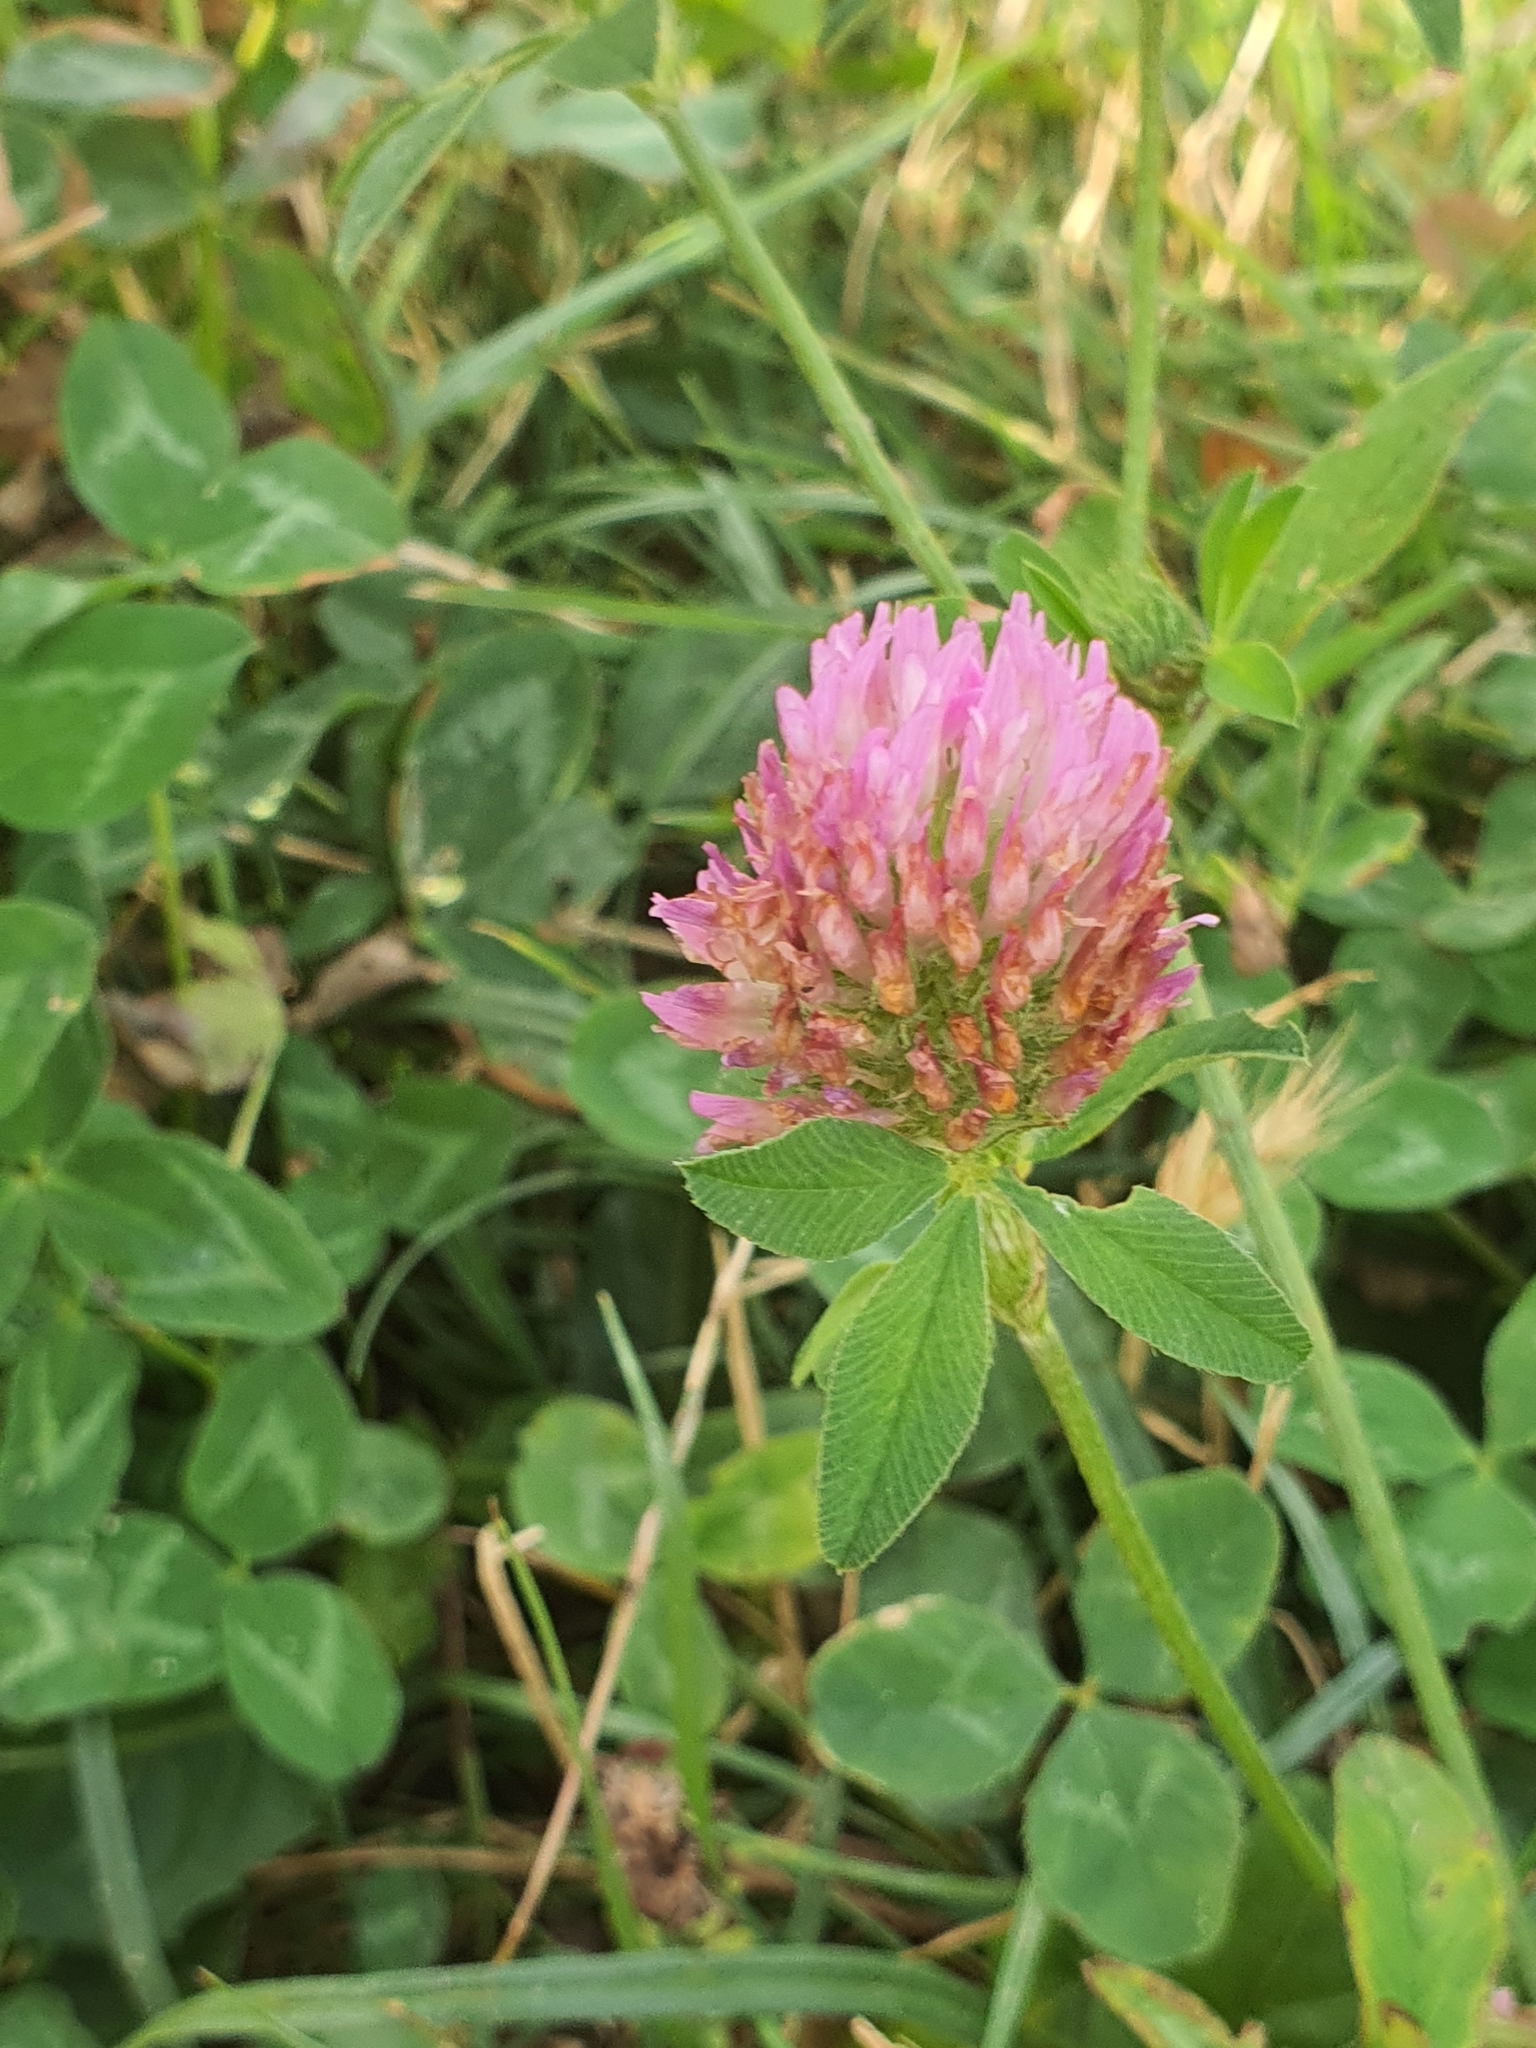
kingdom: Plantae
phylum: Tracheophyta
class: Magnoliopsida
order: Fabales
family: Fabaceae
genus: Trifolium
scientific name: Trifolium pratense
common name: Red clover
